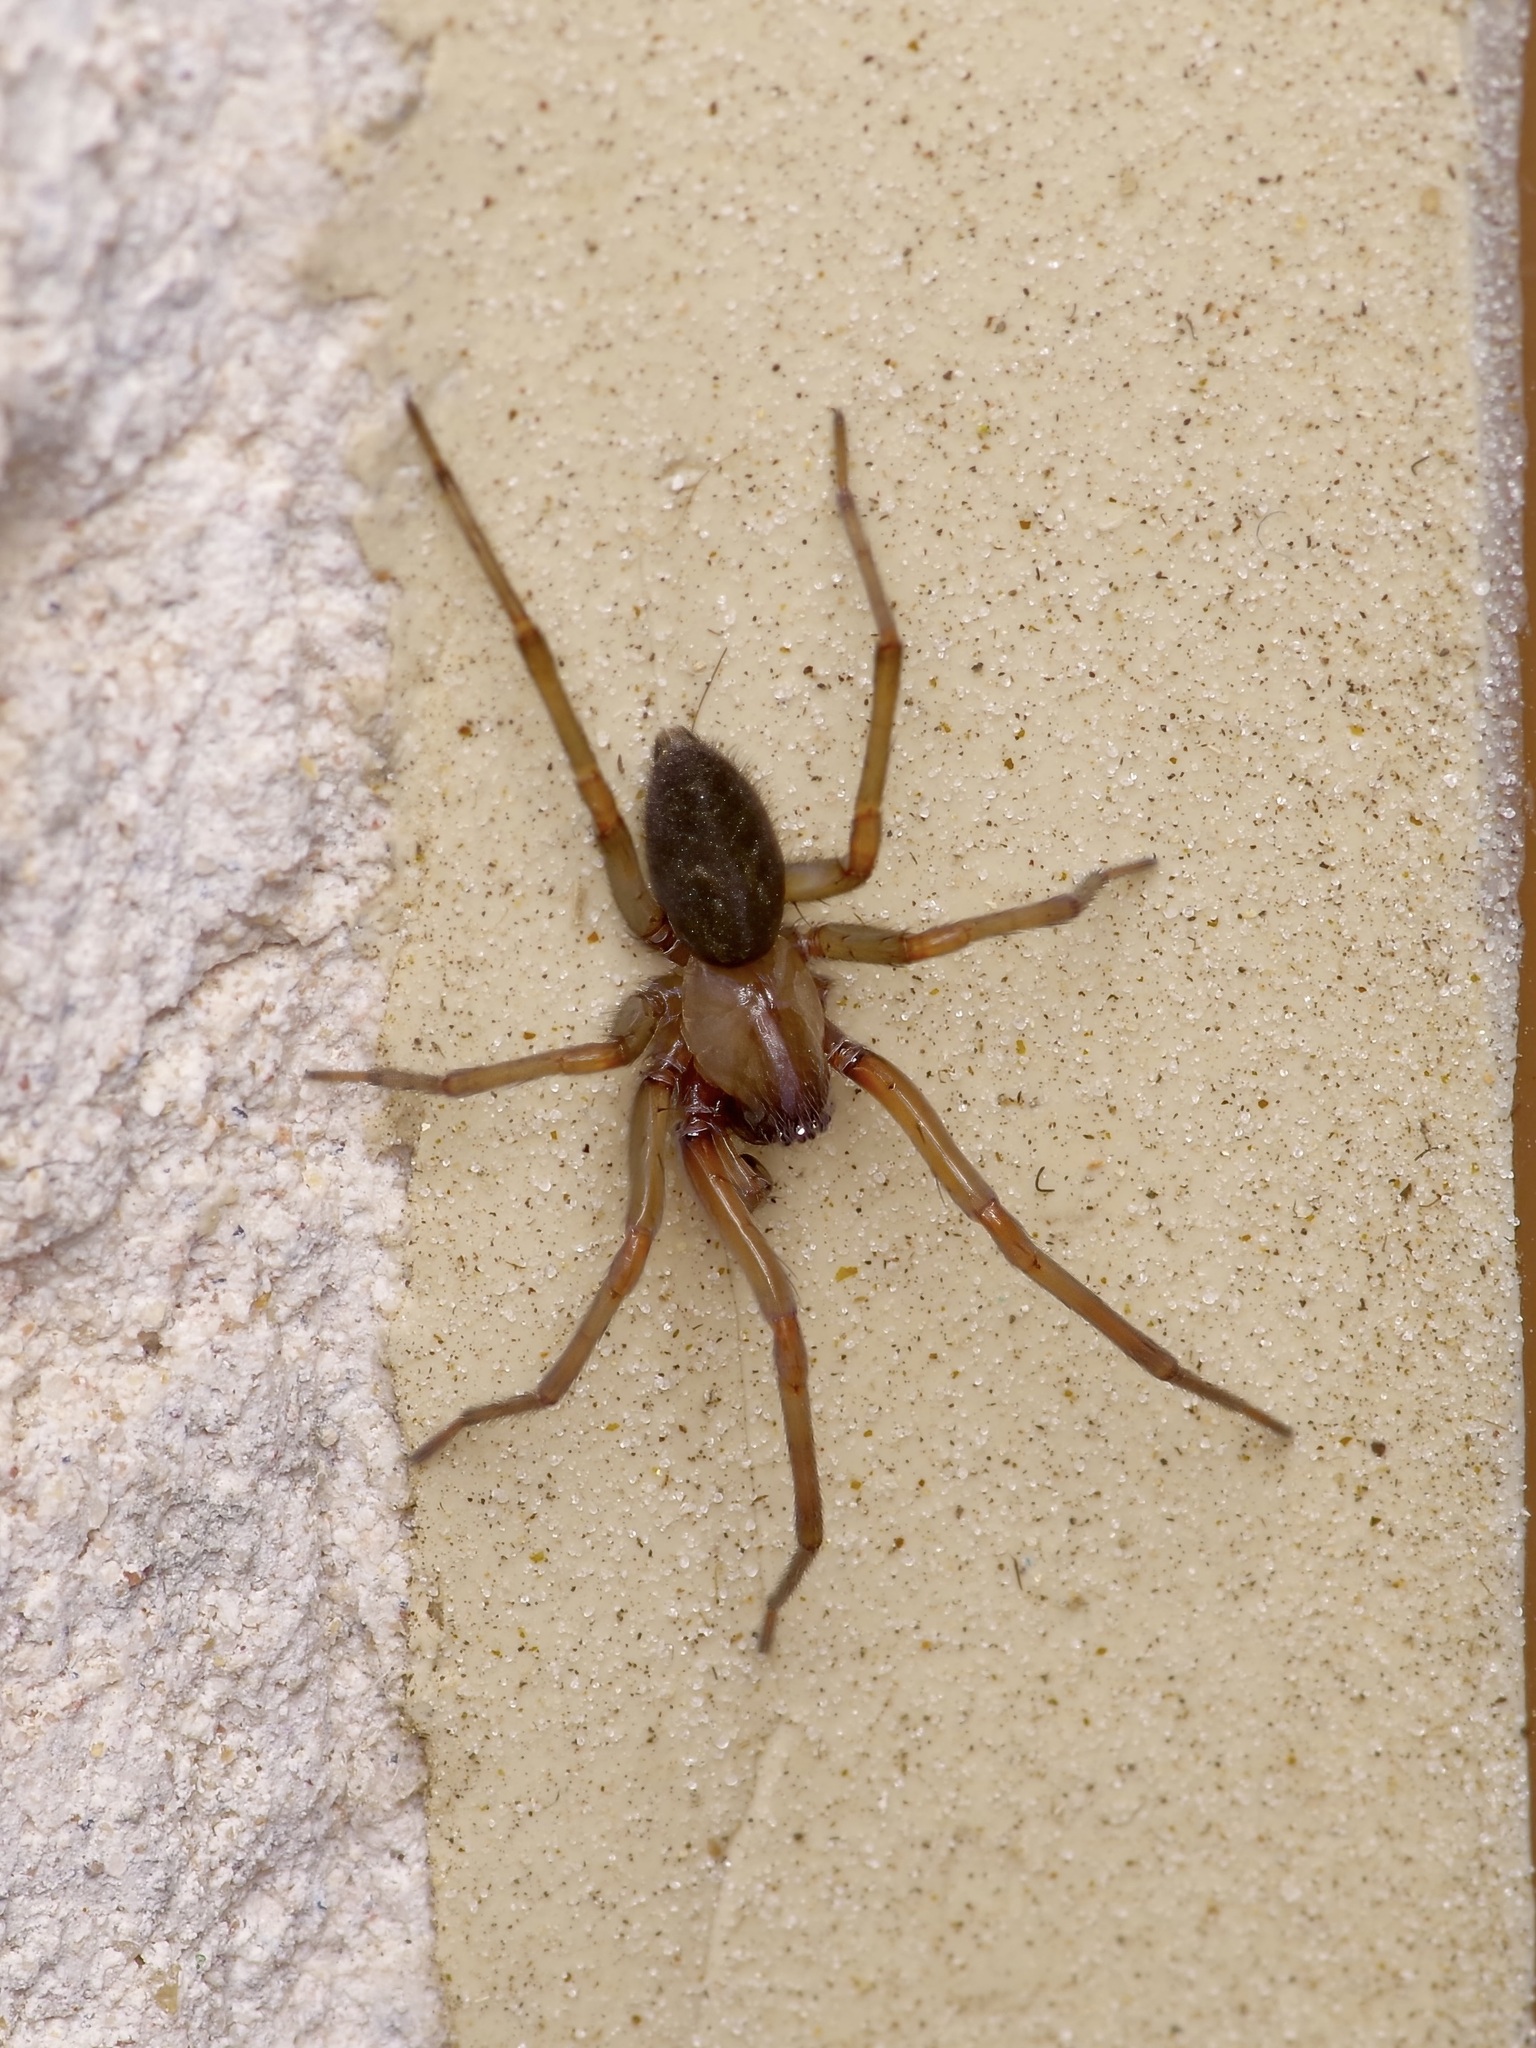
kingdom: Animalia
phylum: Arthropoda
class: Arachnida
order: Araneae
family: Desidae
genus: Metaltella
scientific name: Metaltella simoni
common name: Cribellate spider
